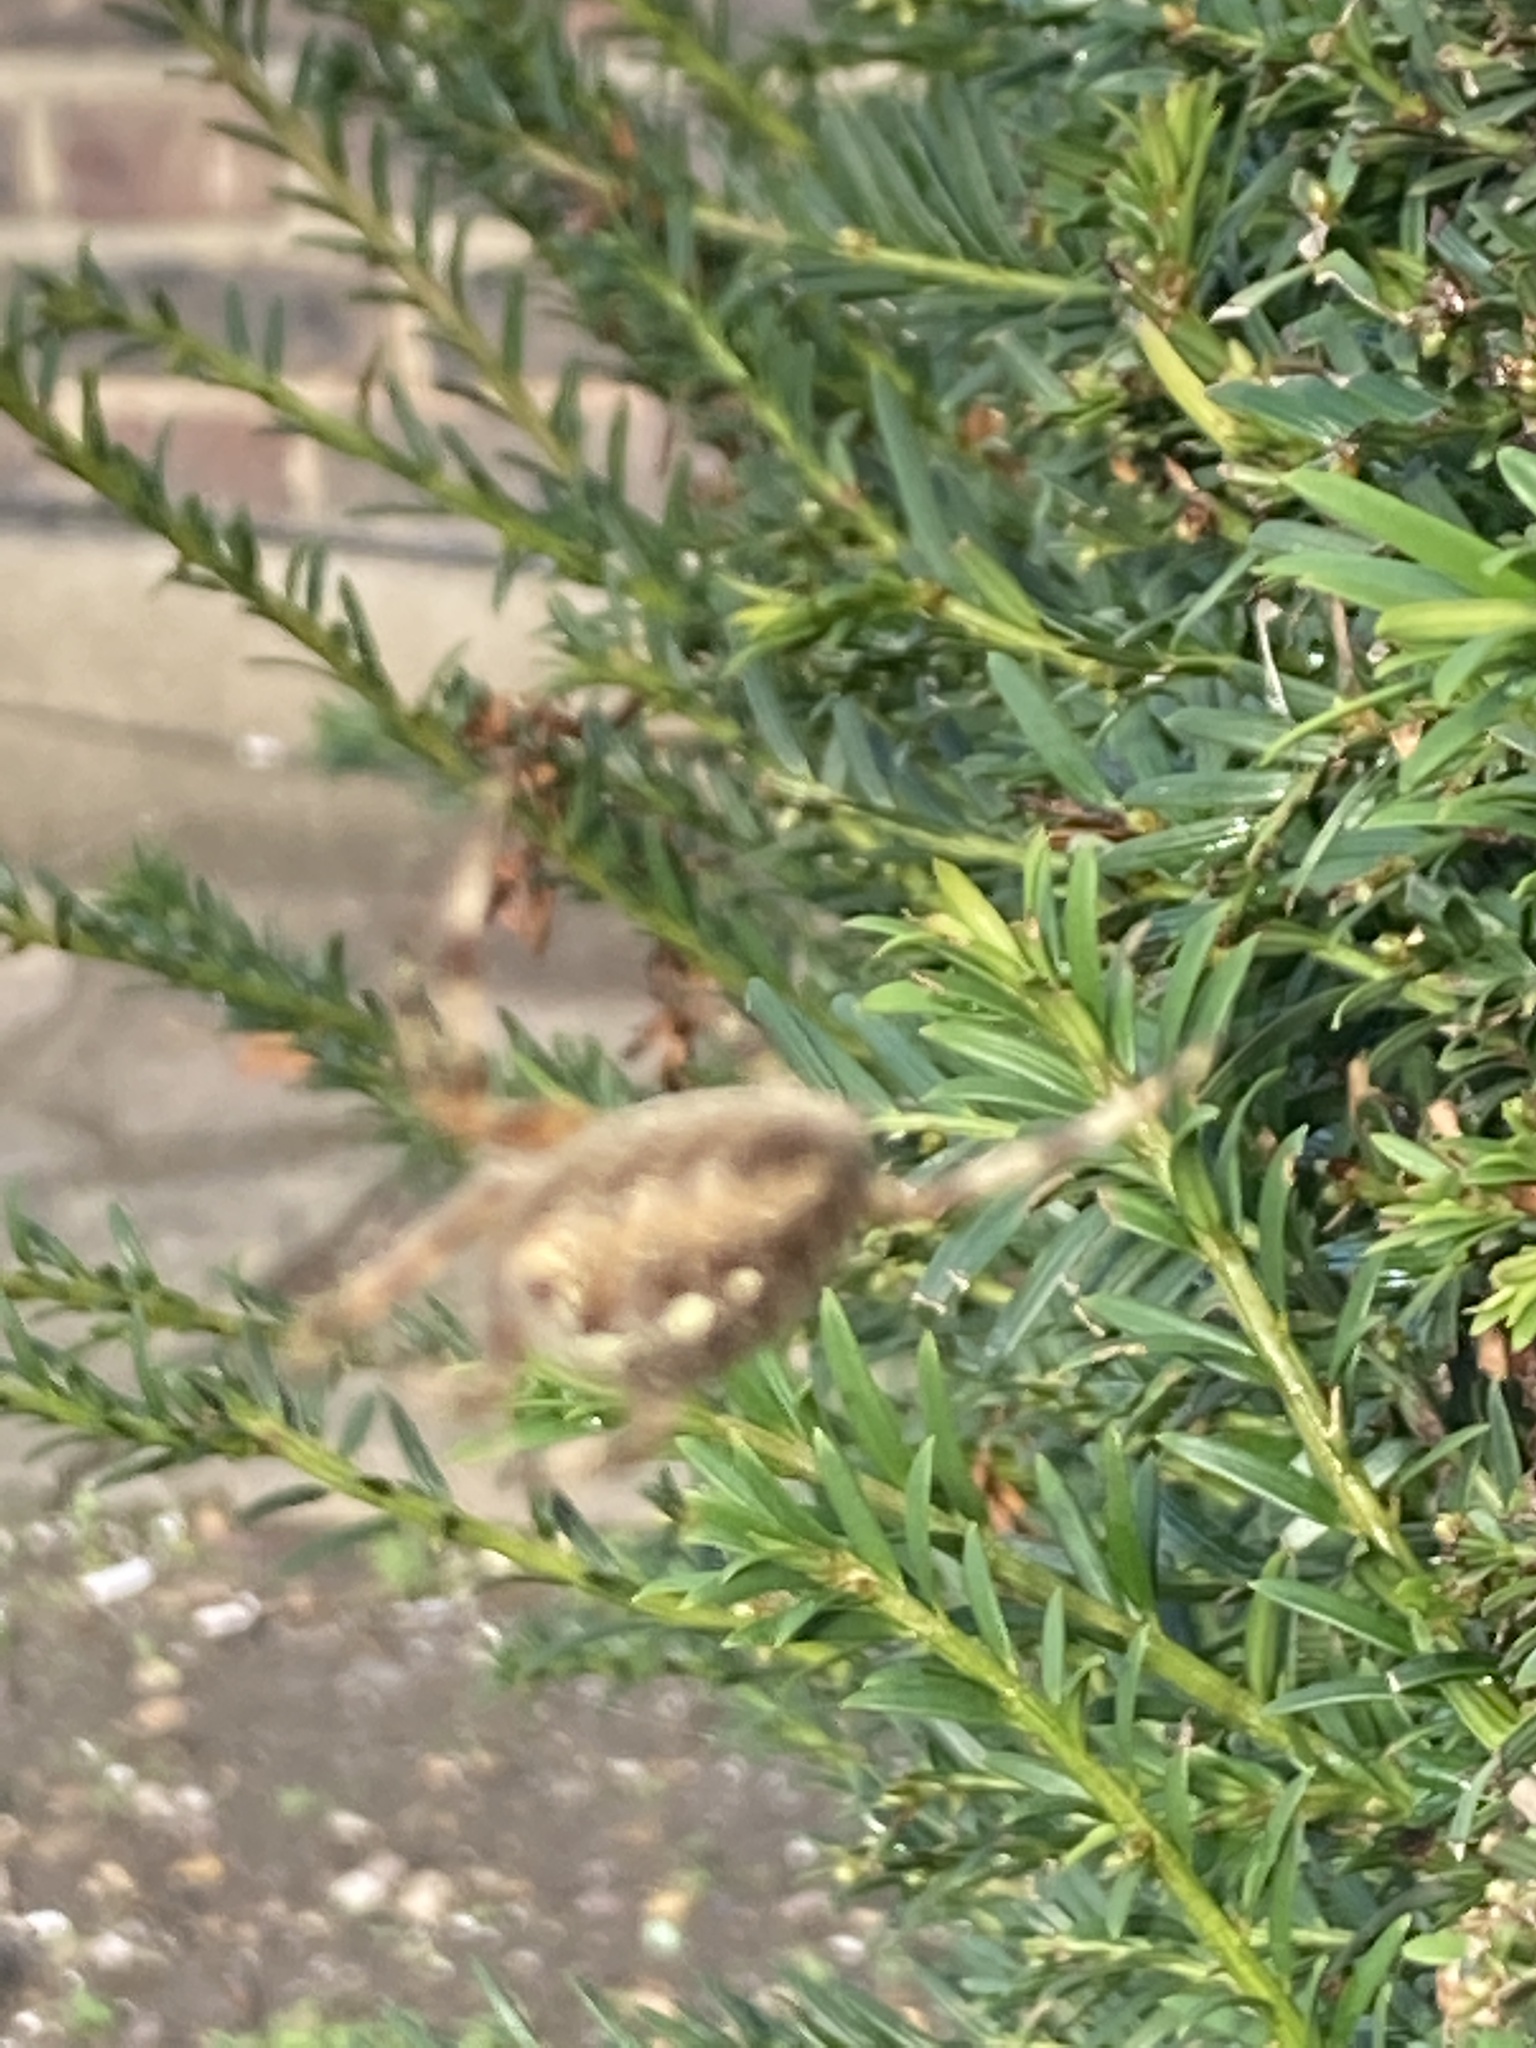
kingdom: Animalia
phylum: Arthropoda
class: Arachnida
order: Araneae
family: Araneidae
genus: Araneus
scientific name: Araneus diadematus
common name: Cross orbweaver
